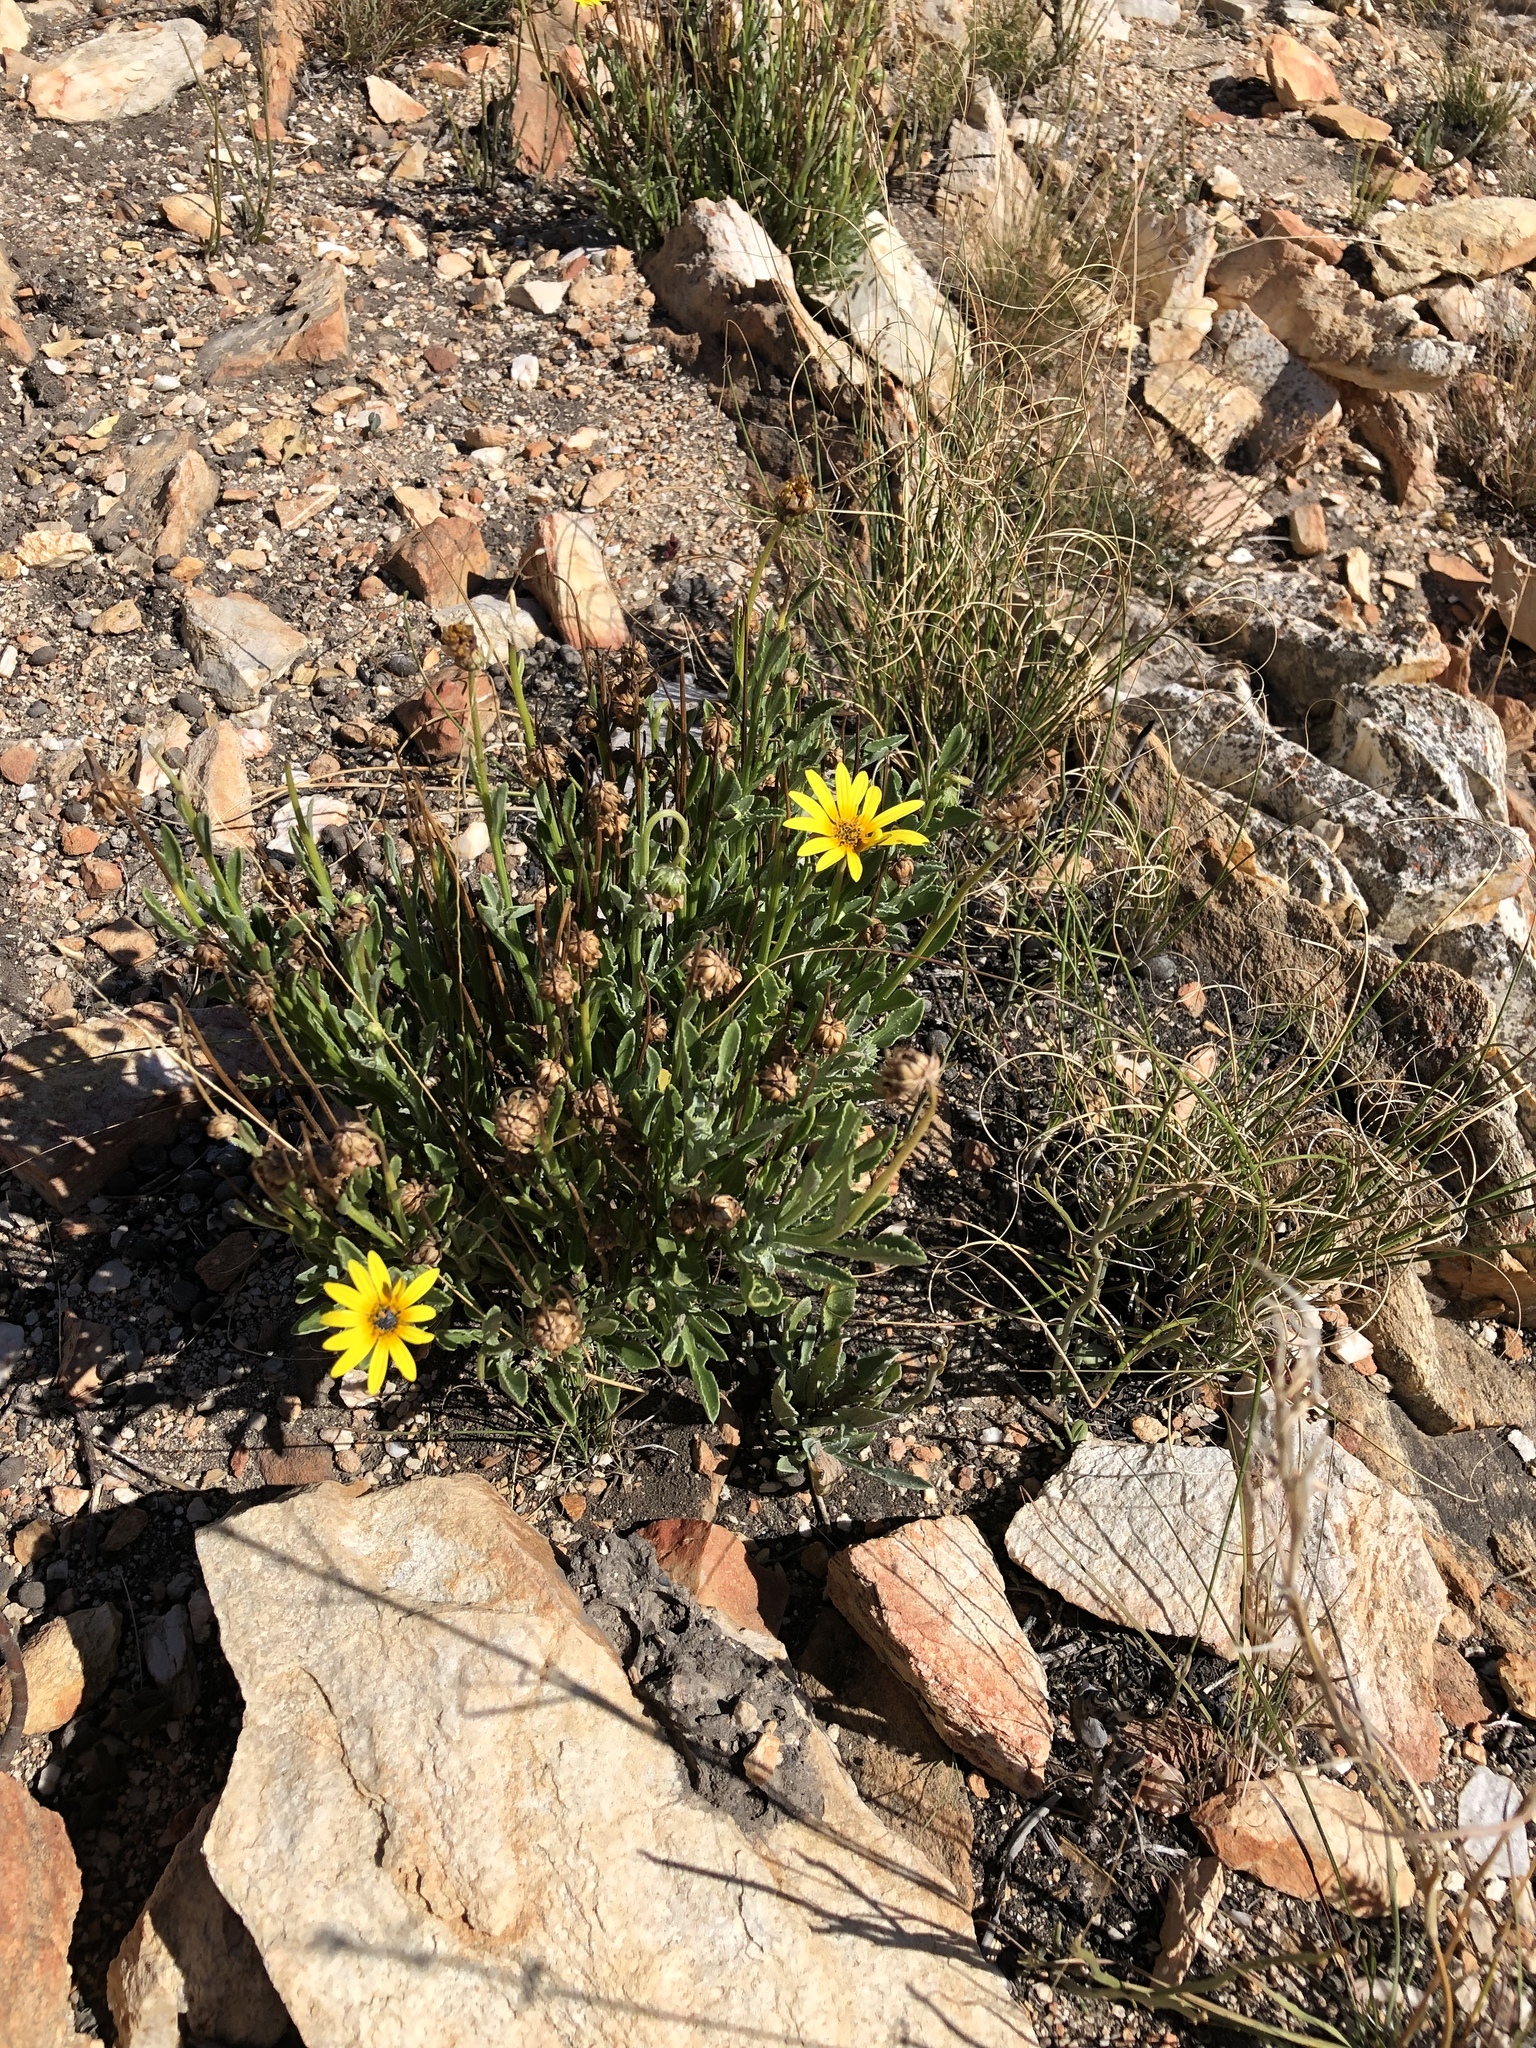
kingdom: Plantae
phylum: Tracheophyta
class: Magnoliopsida
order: Asterales
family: Asteraceae
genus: Arctotis
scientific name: Arctotis lanceolata
